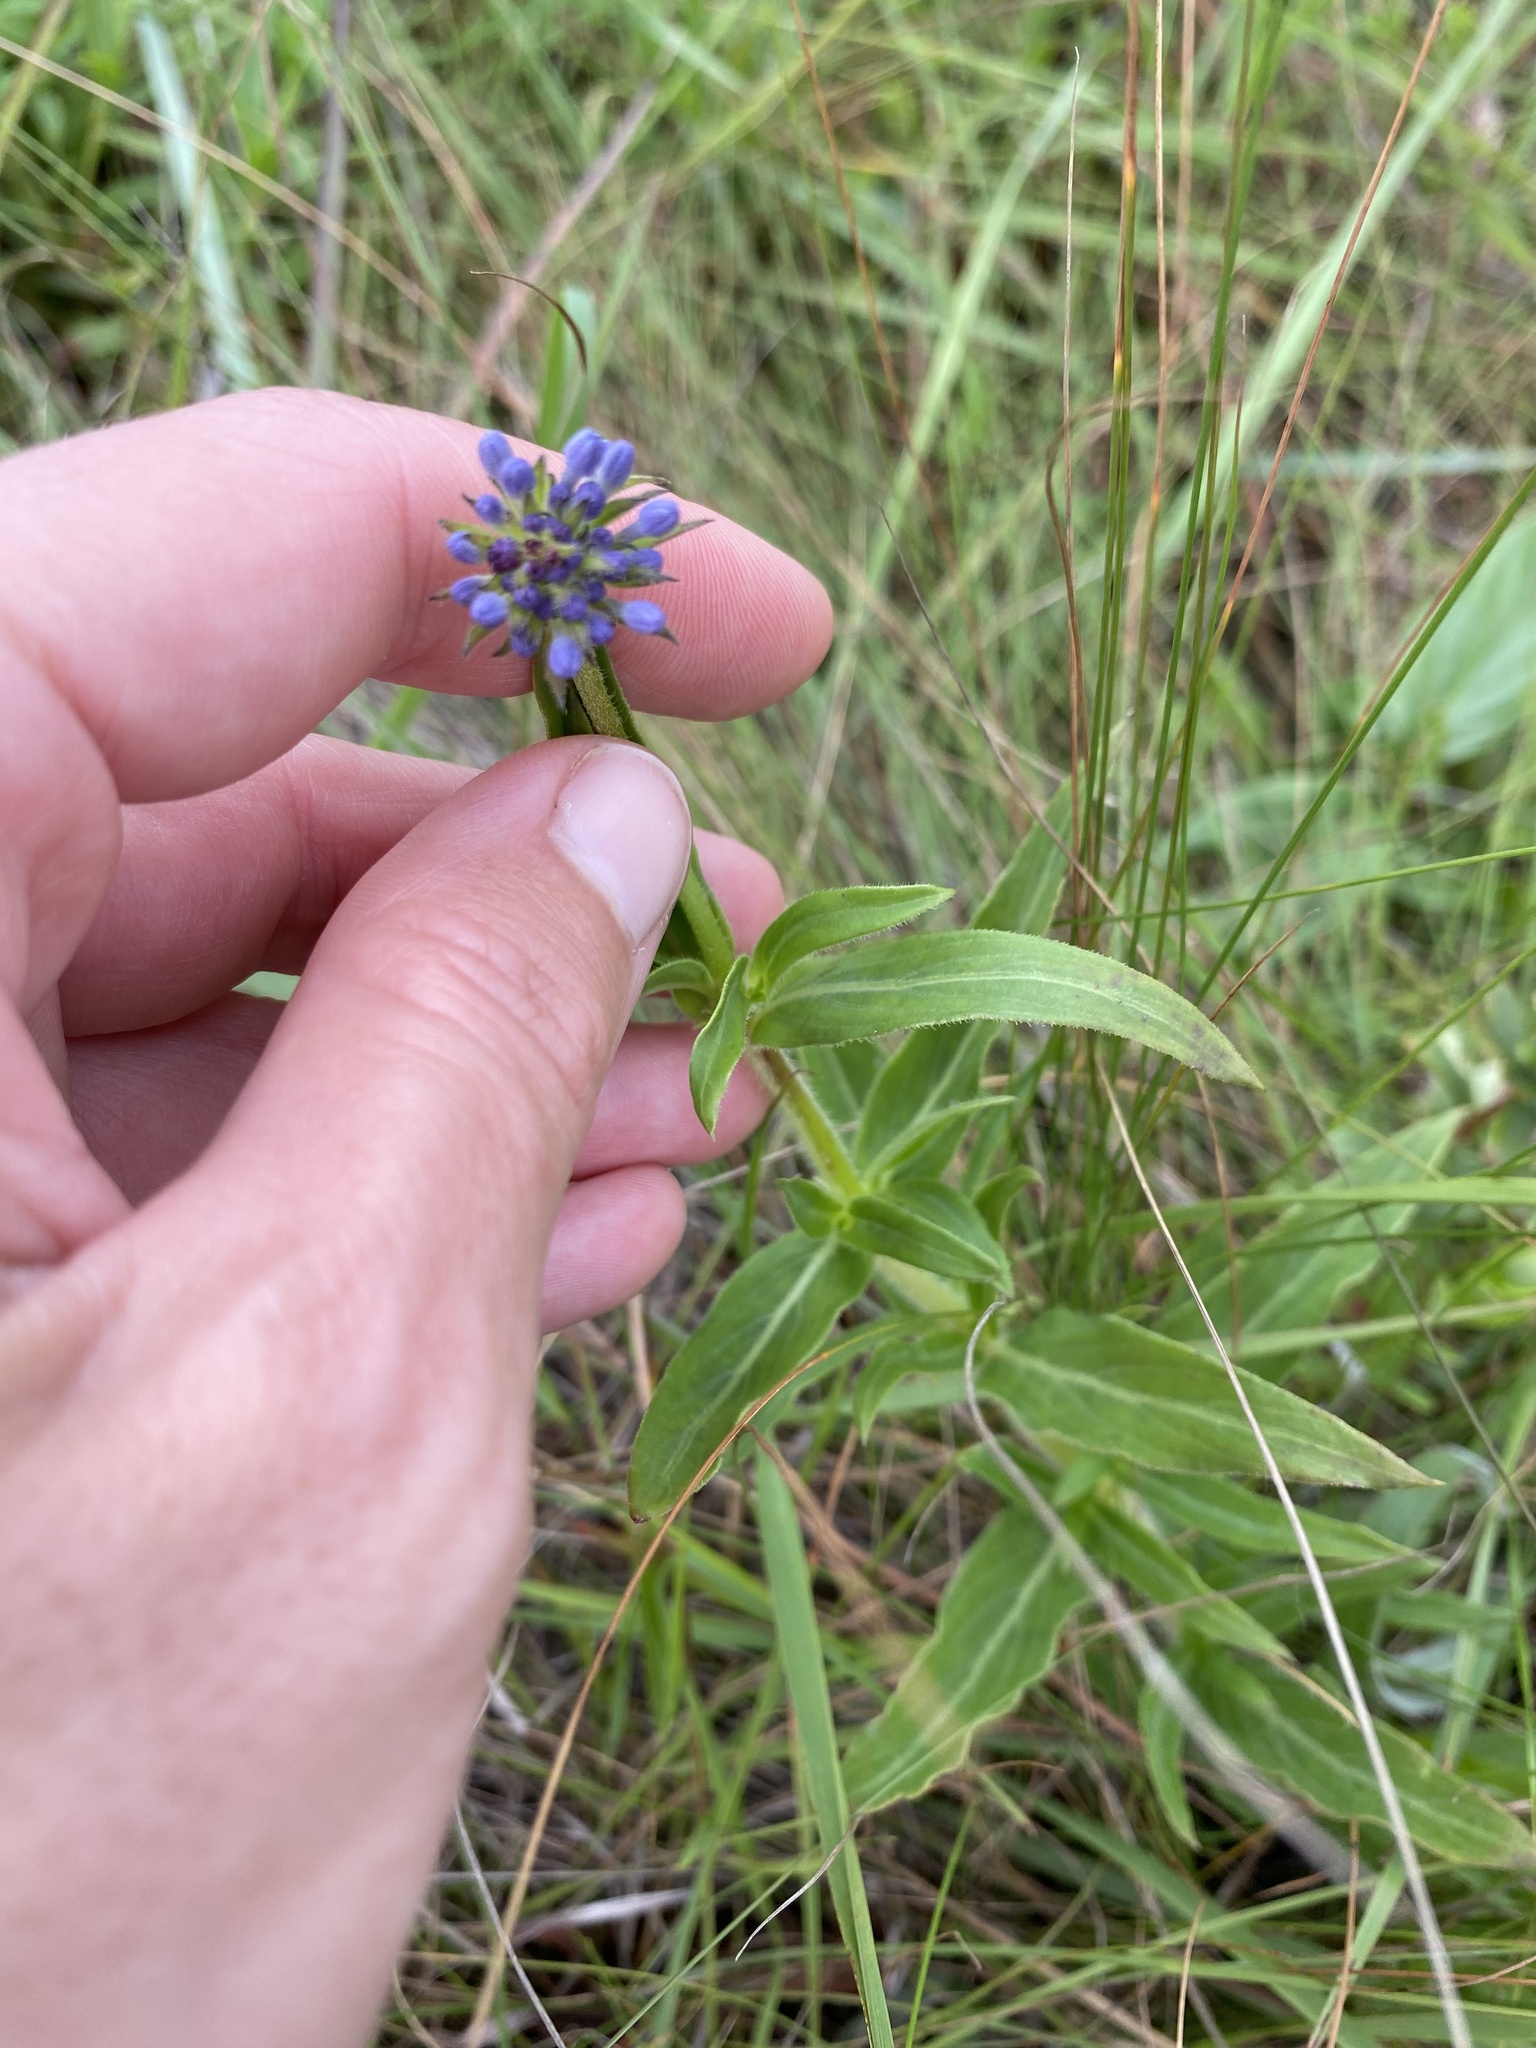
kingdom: Plantae
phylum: Tracheophyta
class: Magnoliopsida
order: Gentianales
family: Rubiaceae
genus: Pentanisia
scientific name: Pentanisia angustifolia
